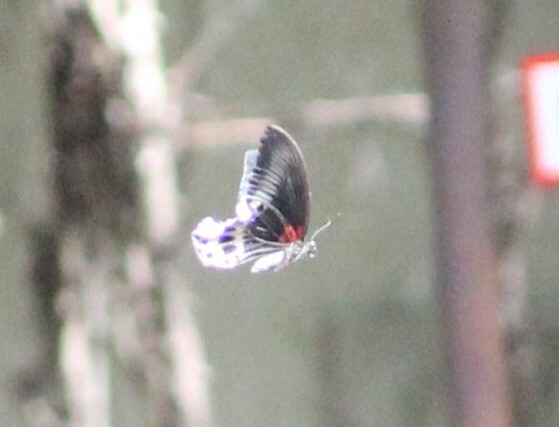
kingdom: Animalia
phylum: Arthropoda
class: Insecta
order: Lepidoptera
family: Papilionidae
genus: Papilio
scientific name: Papilio memnon
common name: Great mormon
